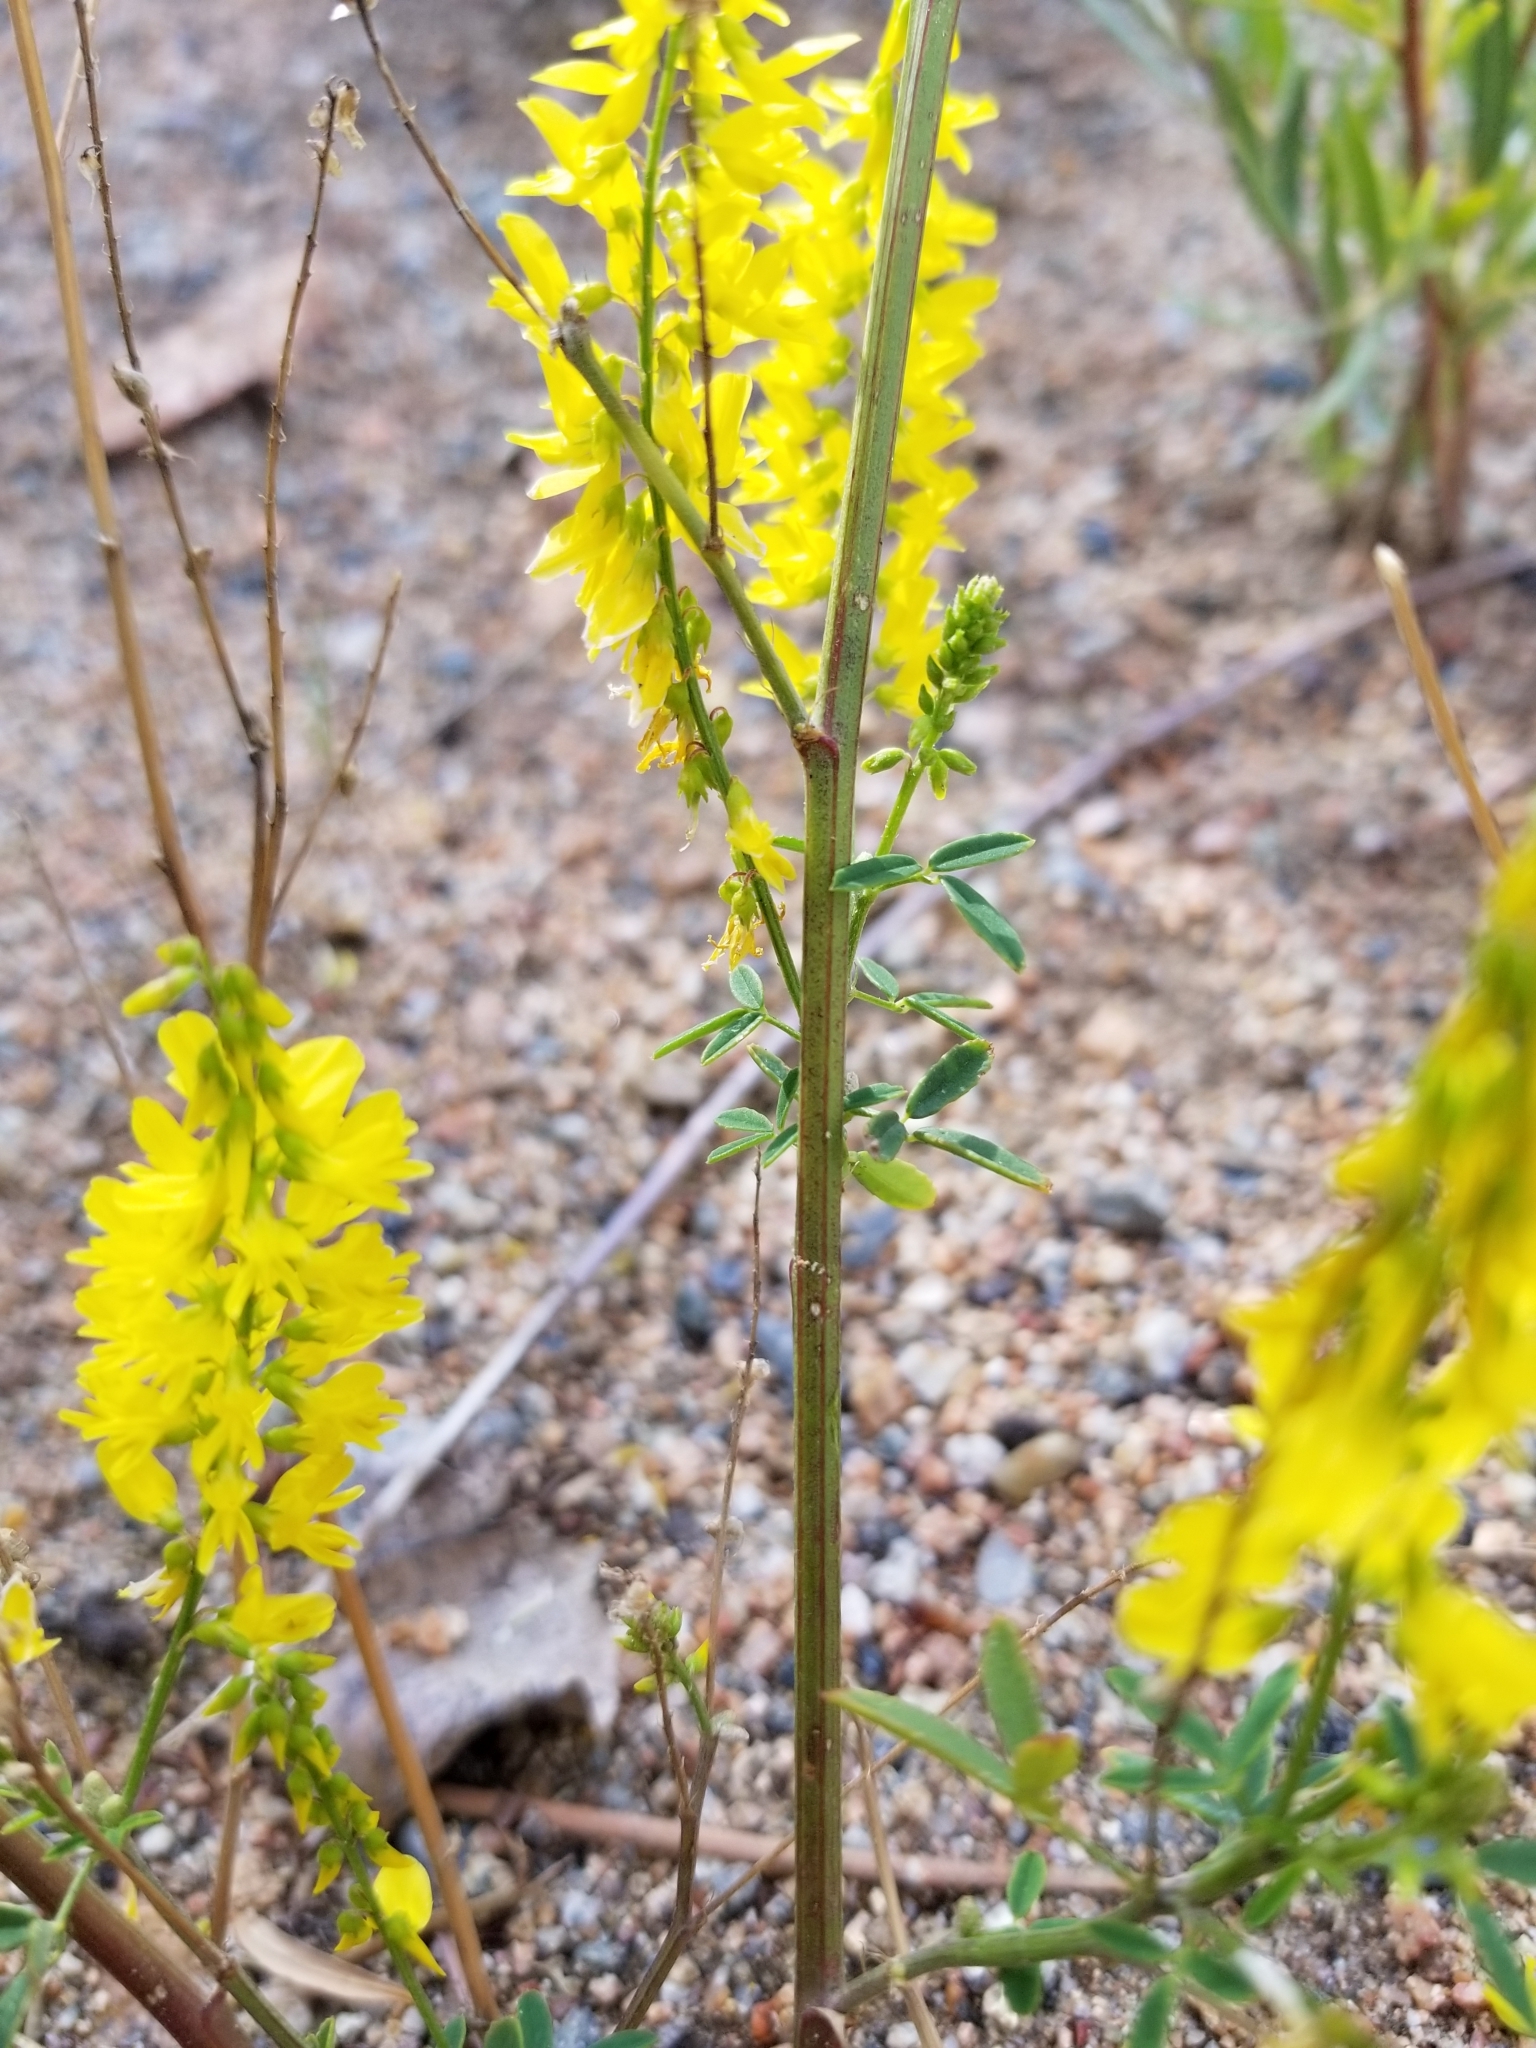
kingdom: Plantae
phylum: Tracheophyta
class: Magnoliopsida
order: Fabales
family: Fabaceae
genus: Melilotus
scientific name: Melilotus officinalis
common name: Sweetclover
